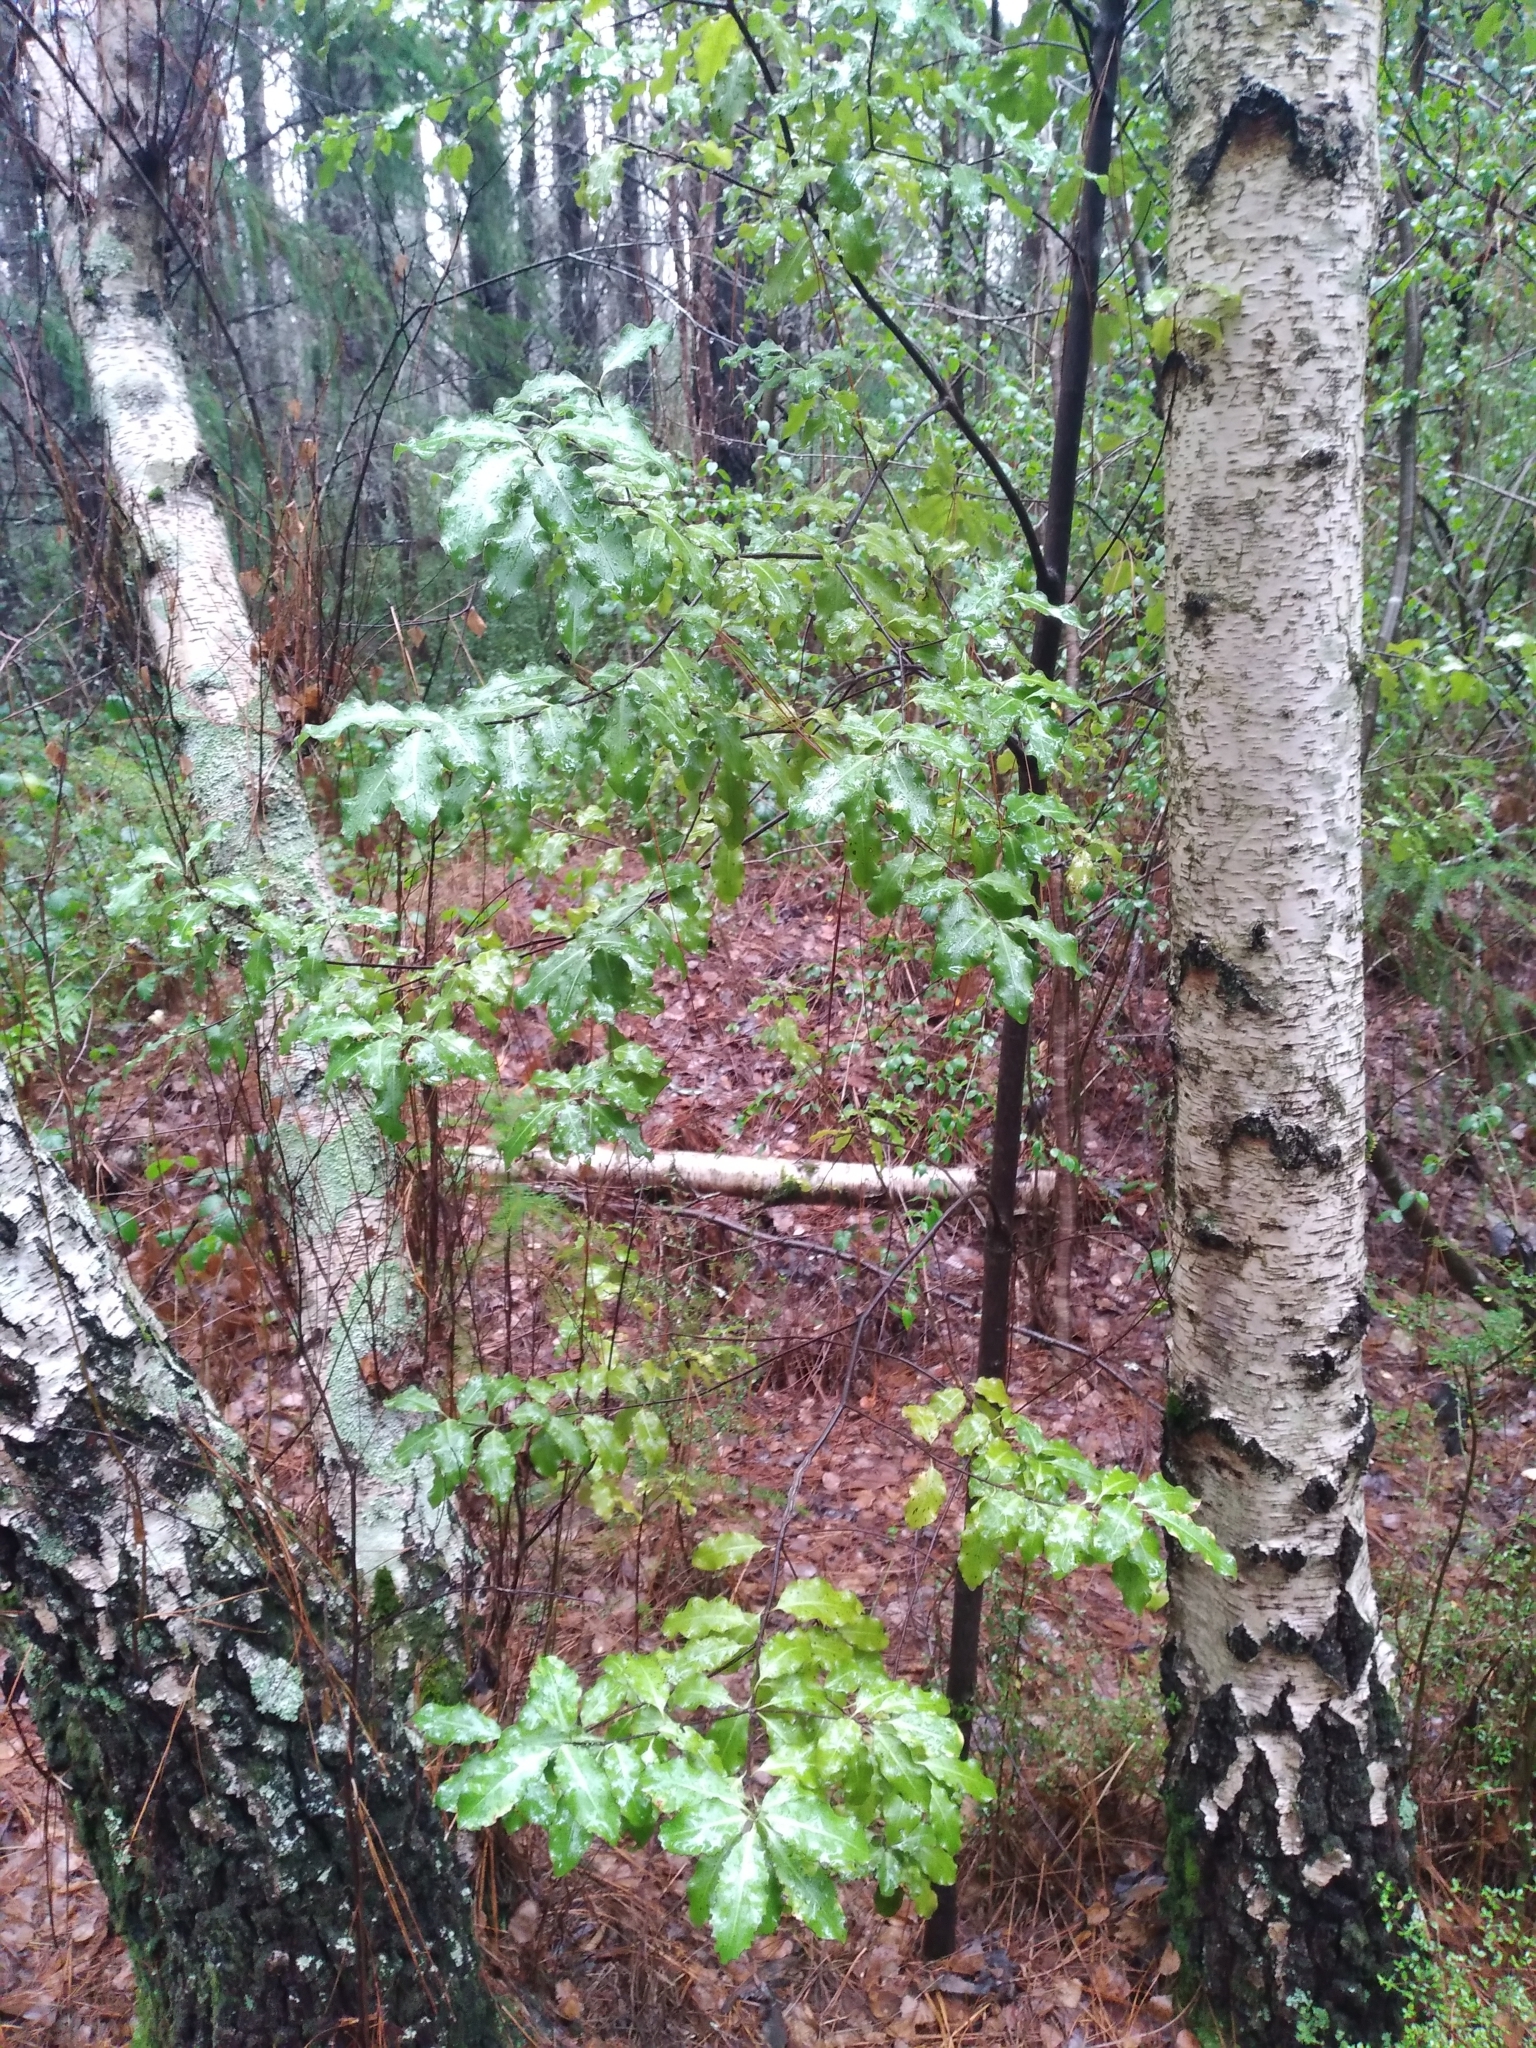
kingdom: Plantae
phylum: Tracheophyta
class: Magnoliopsida
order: Apiales
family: Pittosporaceae
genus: Pittosporum
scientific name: Pittosporum tenuifolium
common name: Kohuhu
